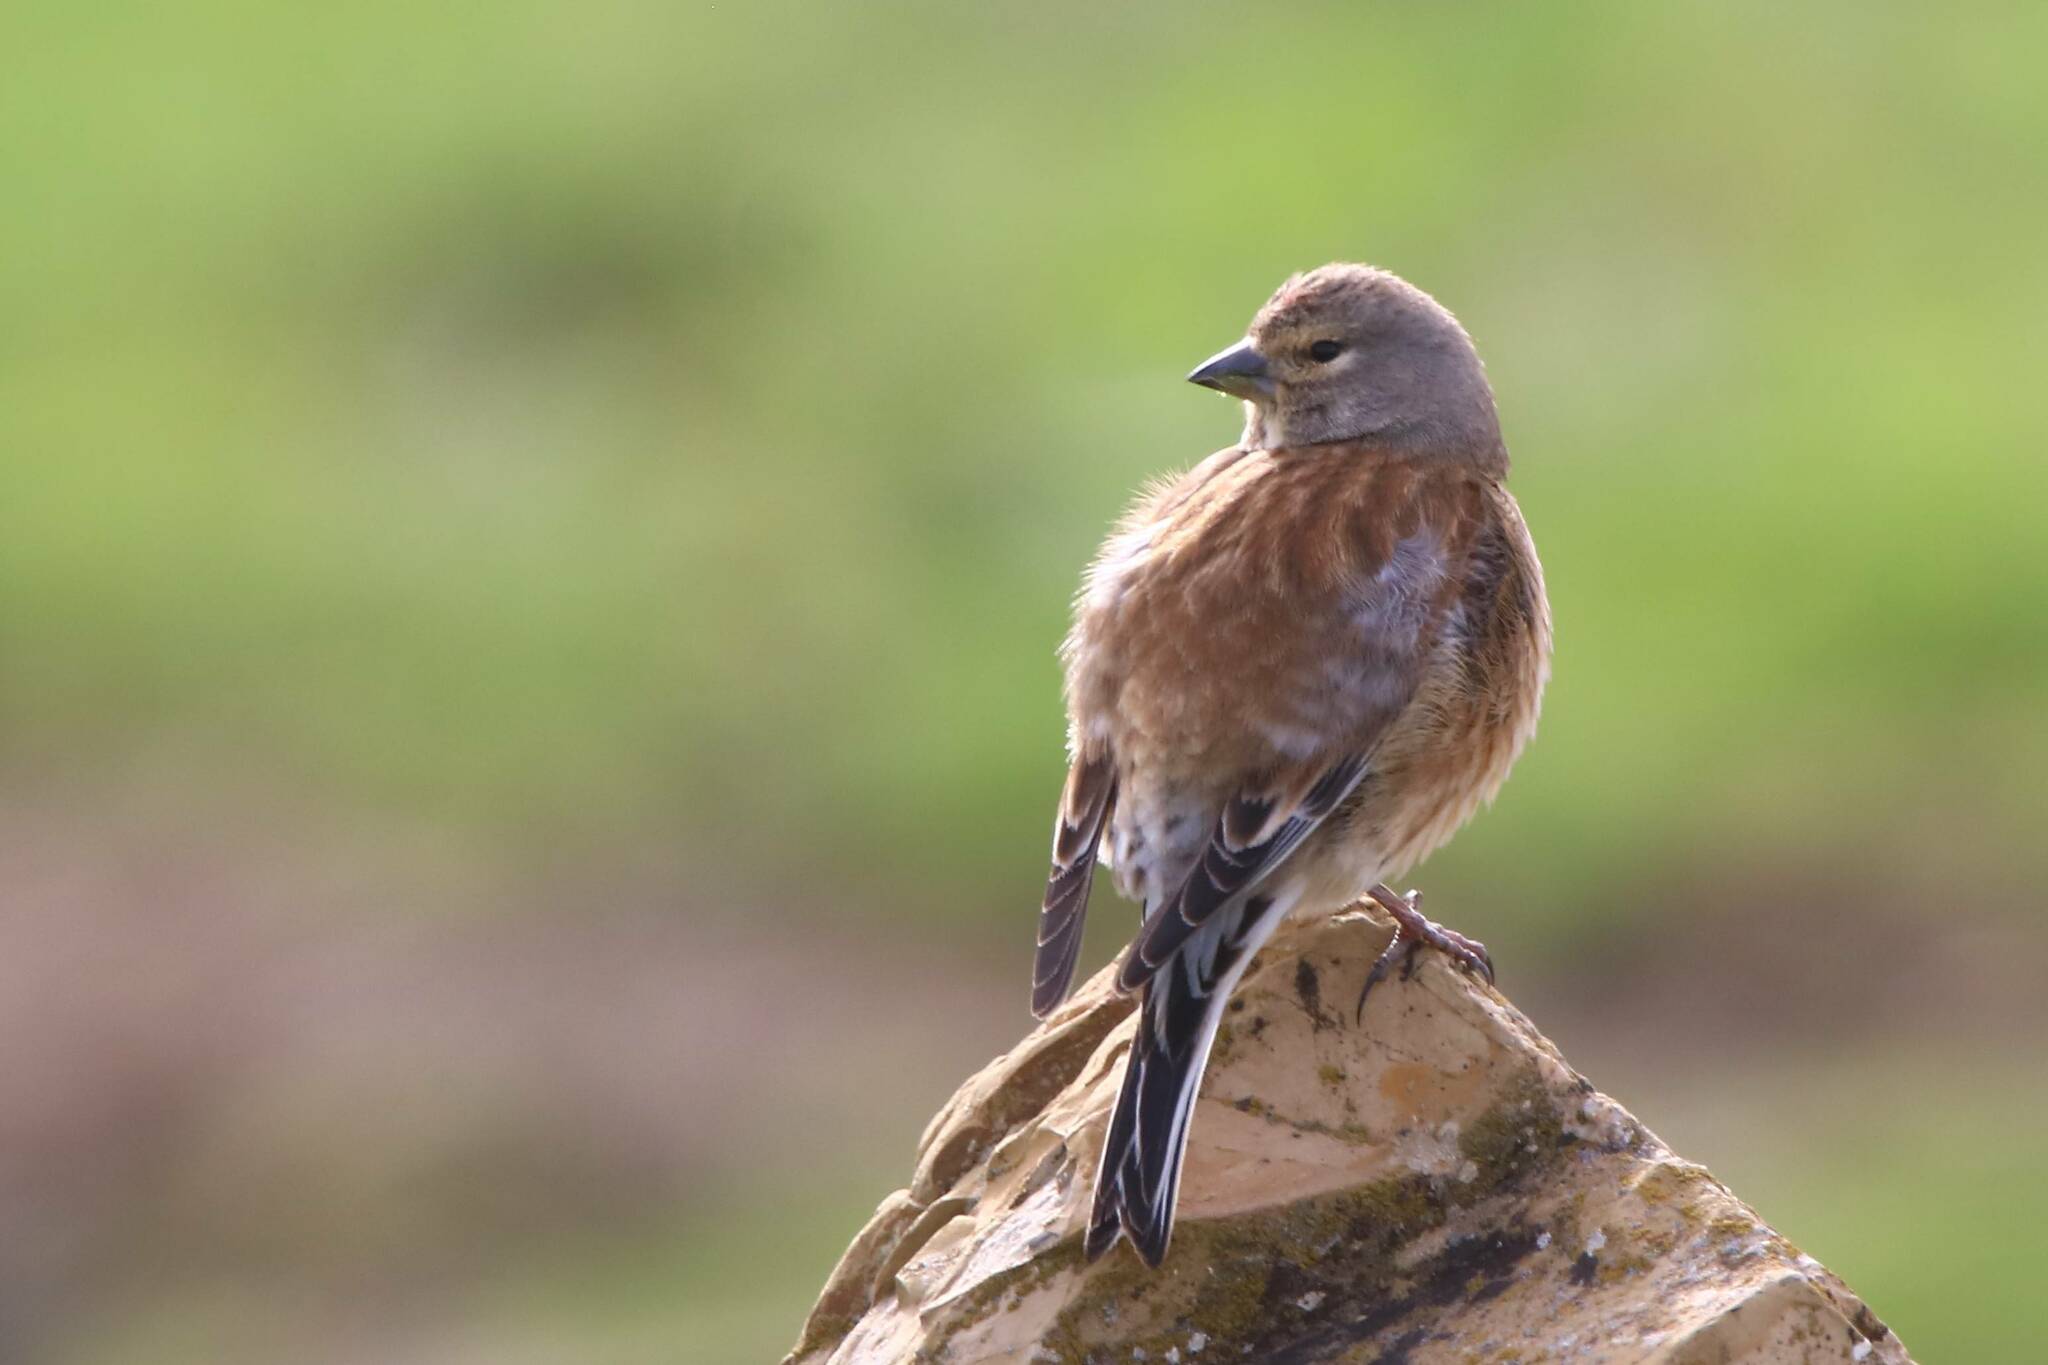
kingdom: Animalia
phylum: Chordata
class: Aves
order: Passeriformes
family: Fringillidae
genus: Linaria
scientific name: Linaria cannabina
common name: Common linnet
